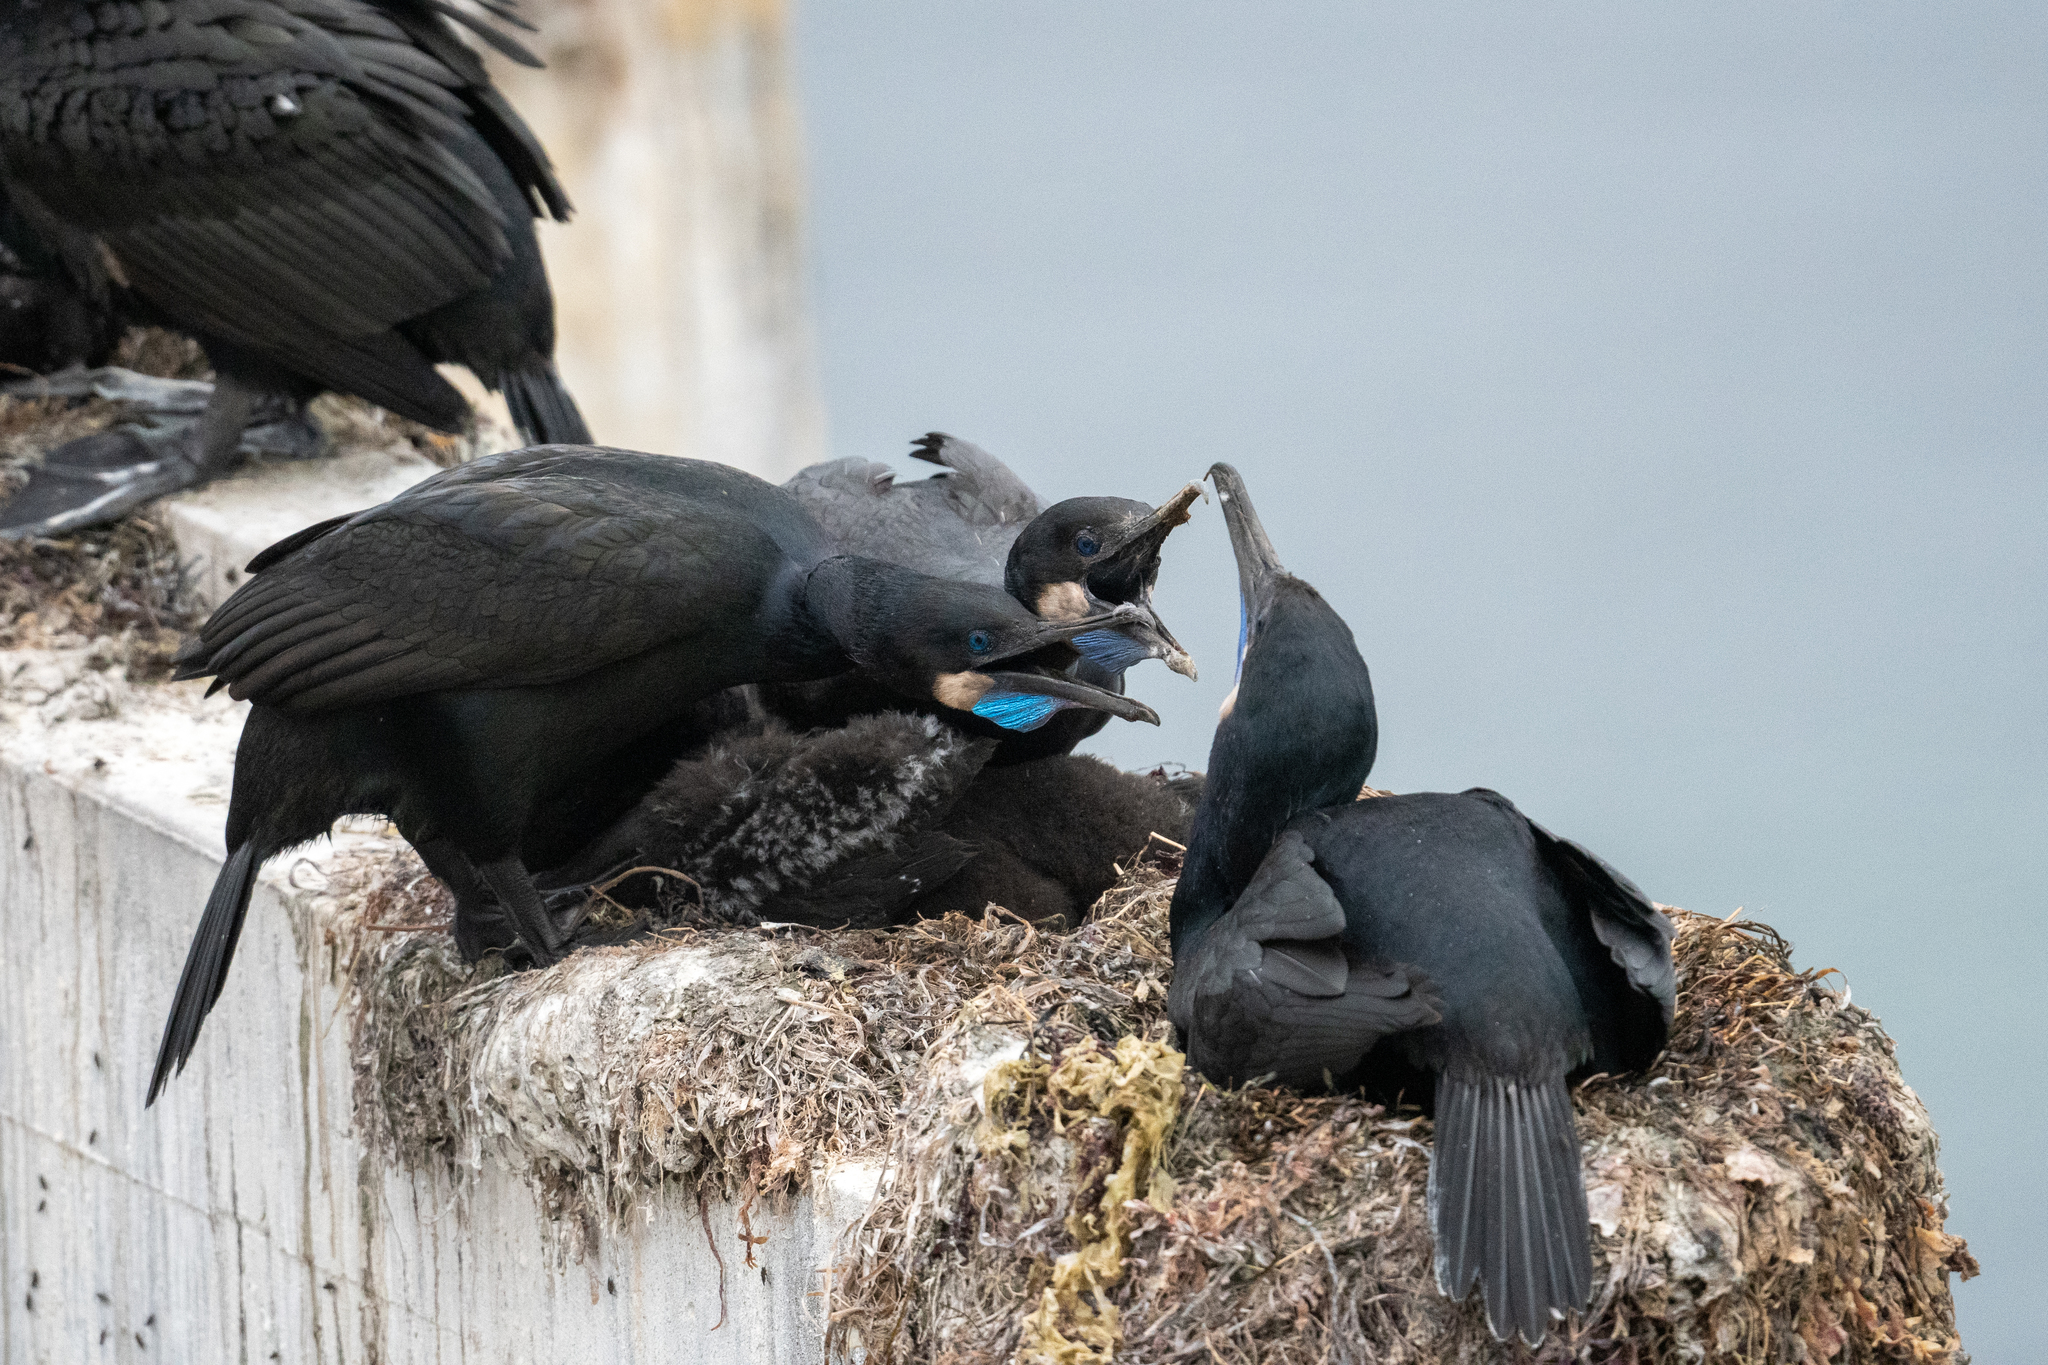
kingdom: Animalia
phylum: Chordata
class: Aves
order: Suliformes
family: Phalacrocoracidae
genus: Urile
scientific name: Urile penicillatus
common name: Brandt's cormorant
